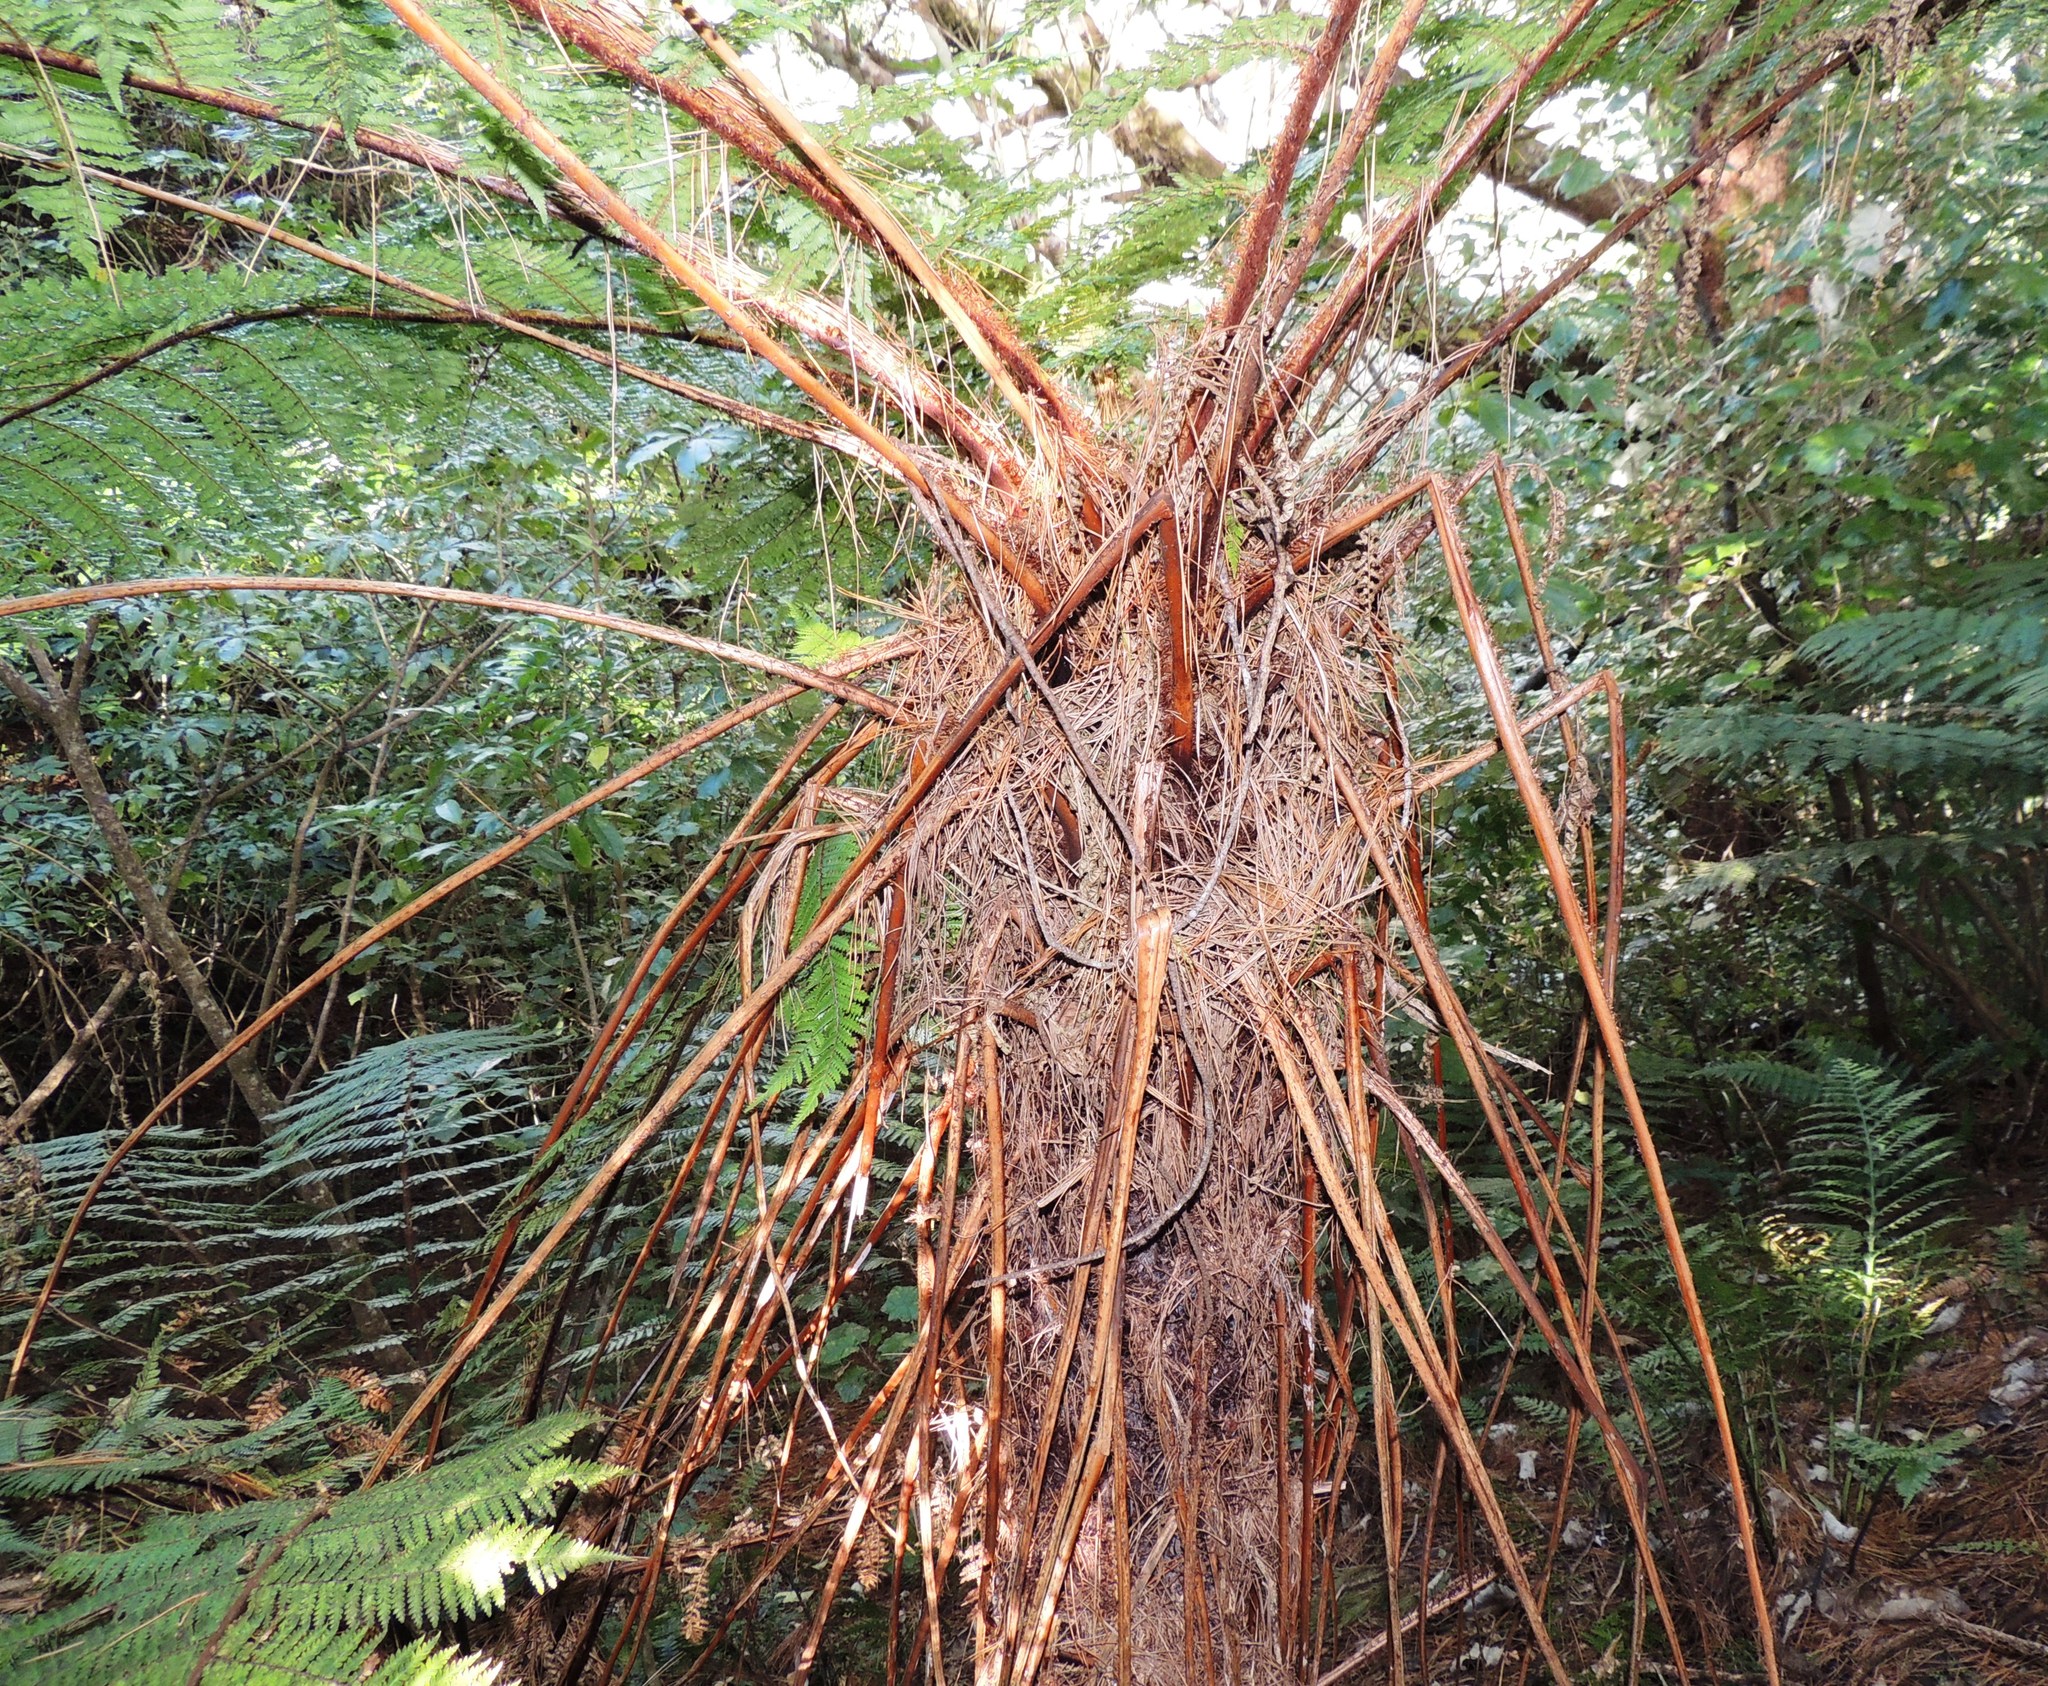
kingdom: Plantae
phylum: Tracheophyta
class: Polypodiopsida
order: Cyatheales
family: Cyatheaceae
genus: Alsophila
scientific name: Alsophila smithii
